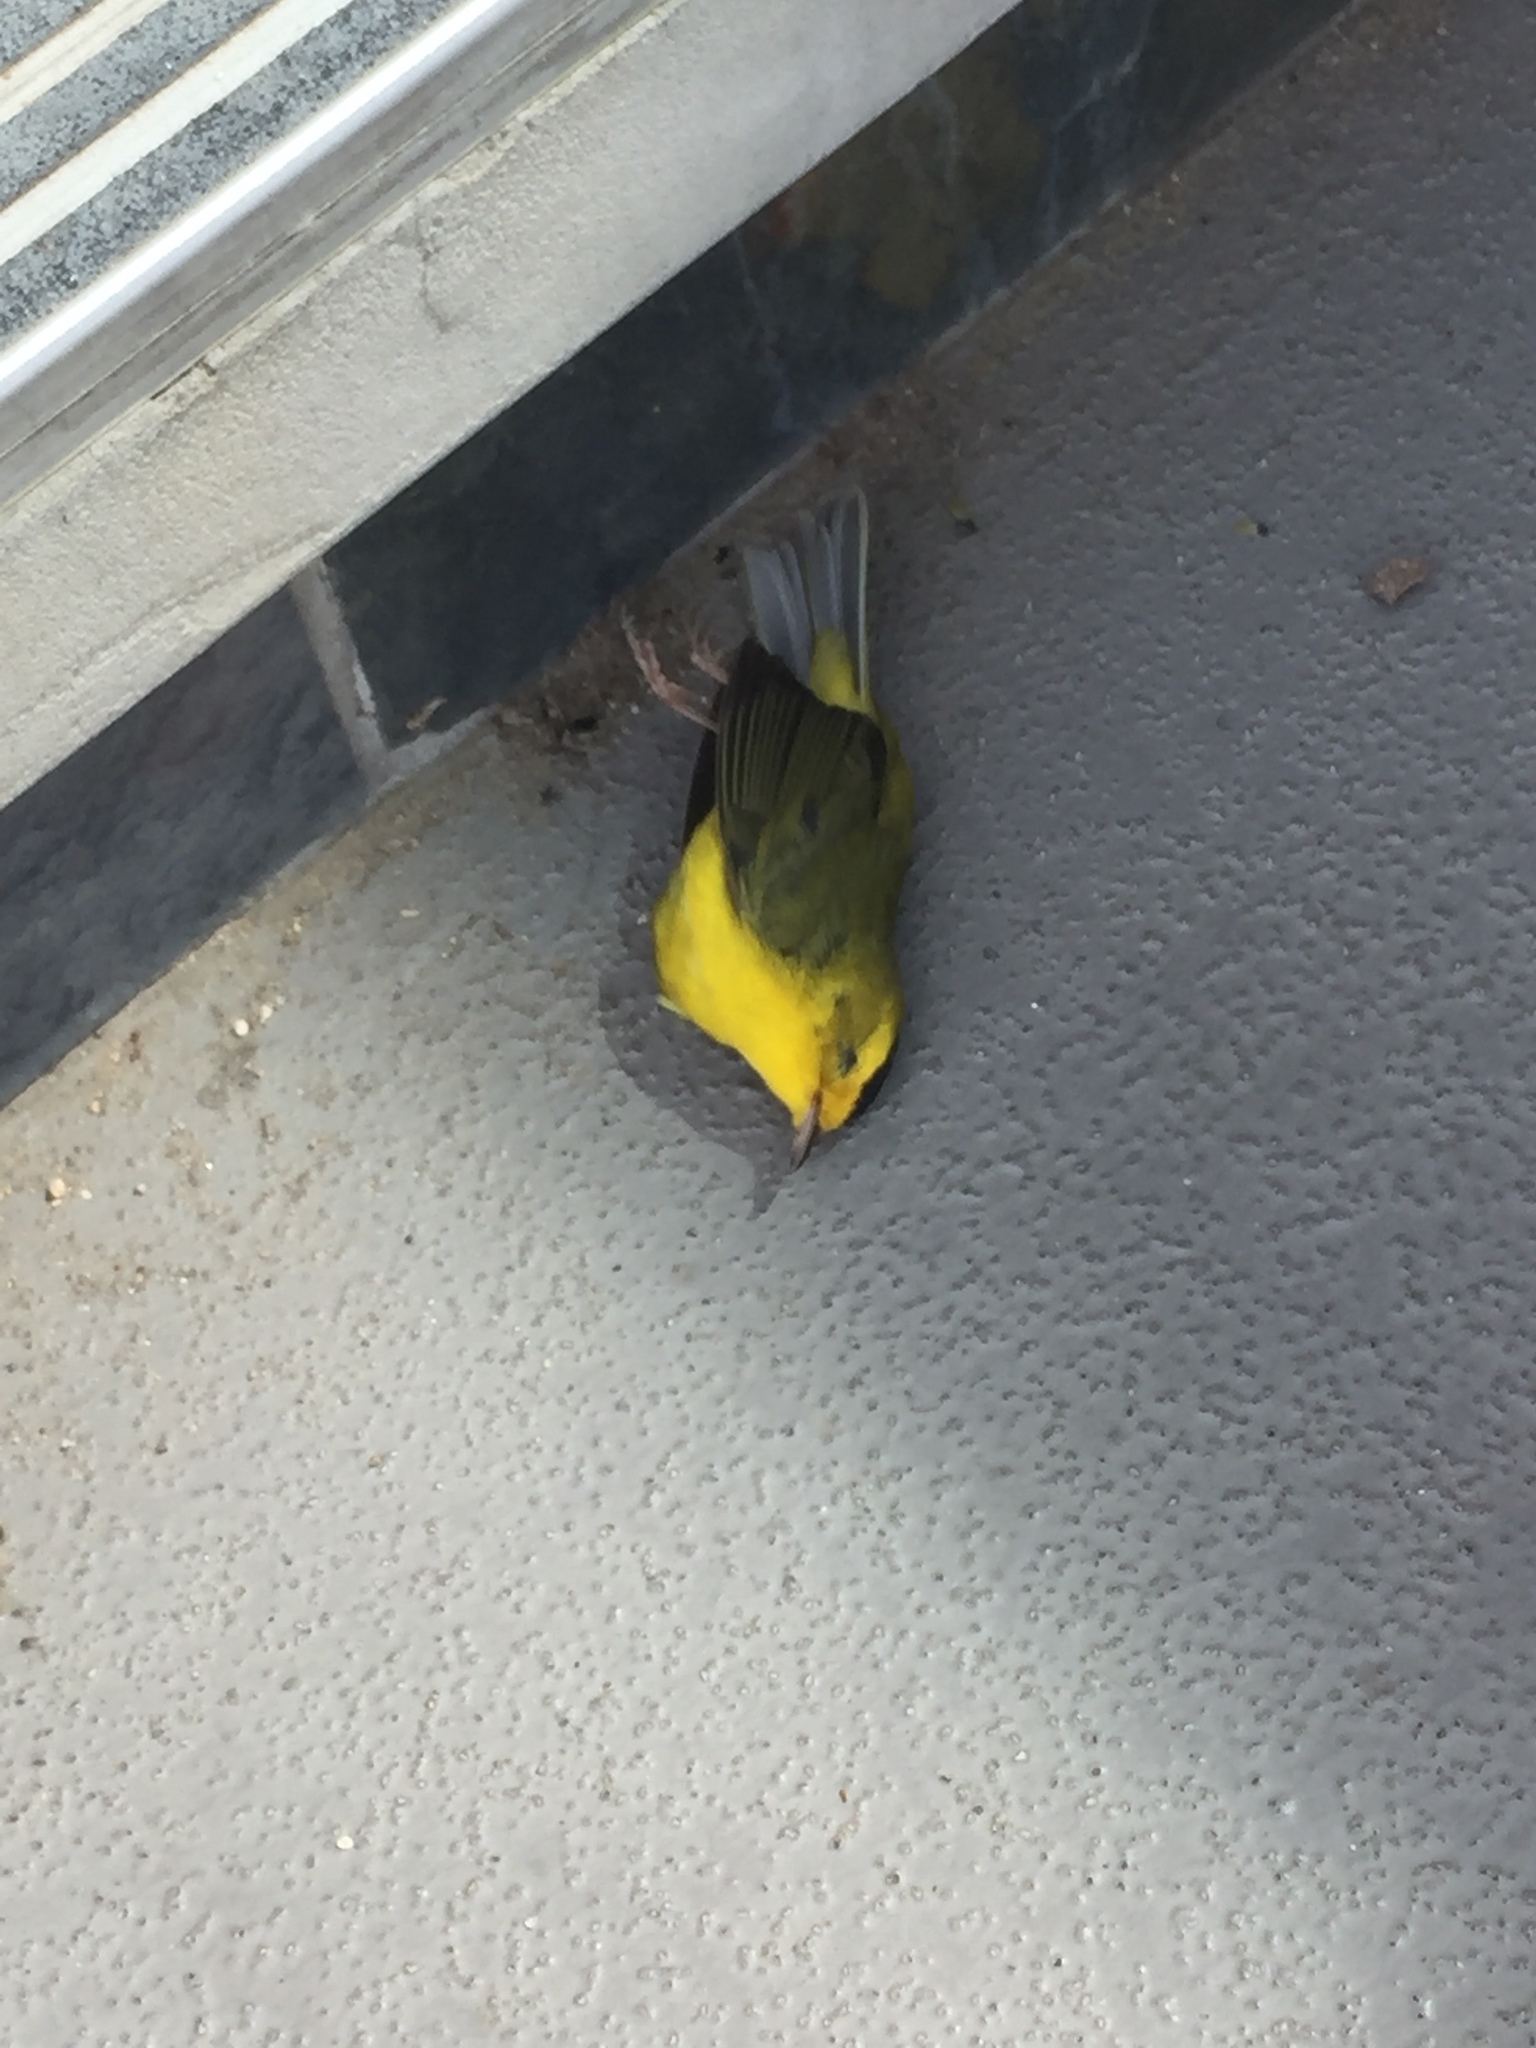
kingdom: Animalia
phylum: Chordata
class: Aves
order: Passeriformes
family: Parulidae
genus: Cardellina
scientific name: Cardellina pusilla
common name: Wilson's warbler
